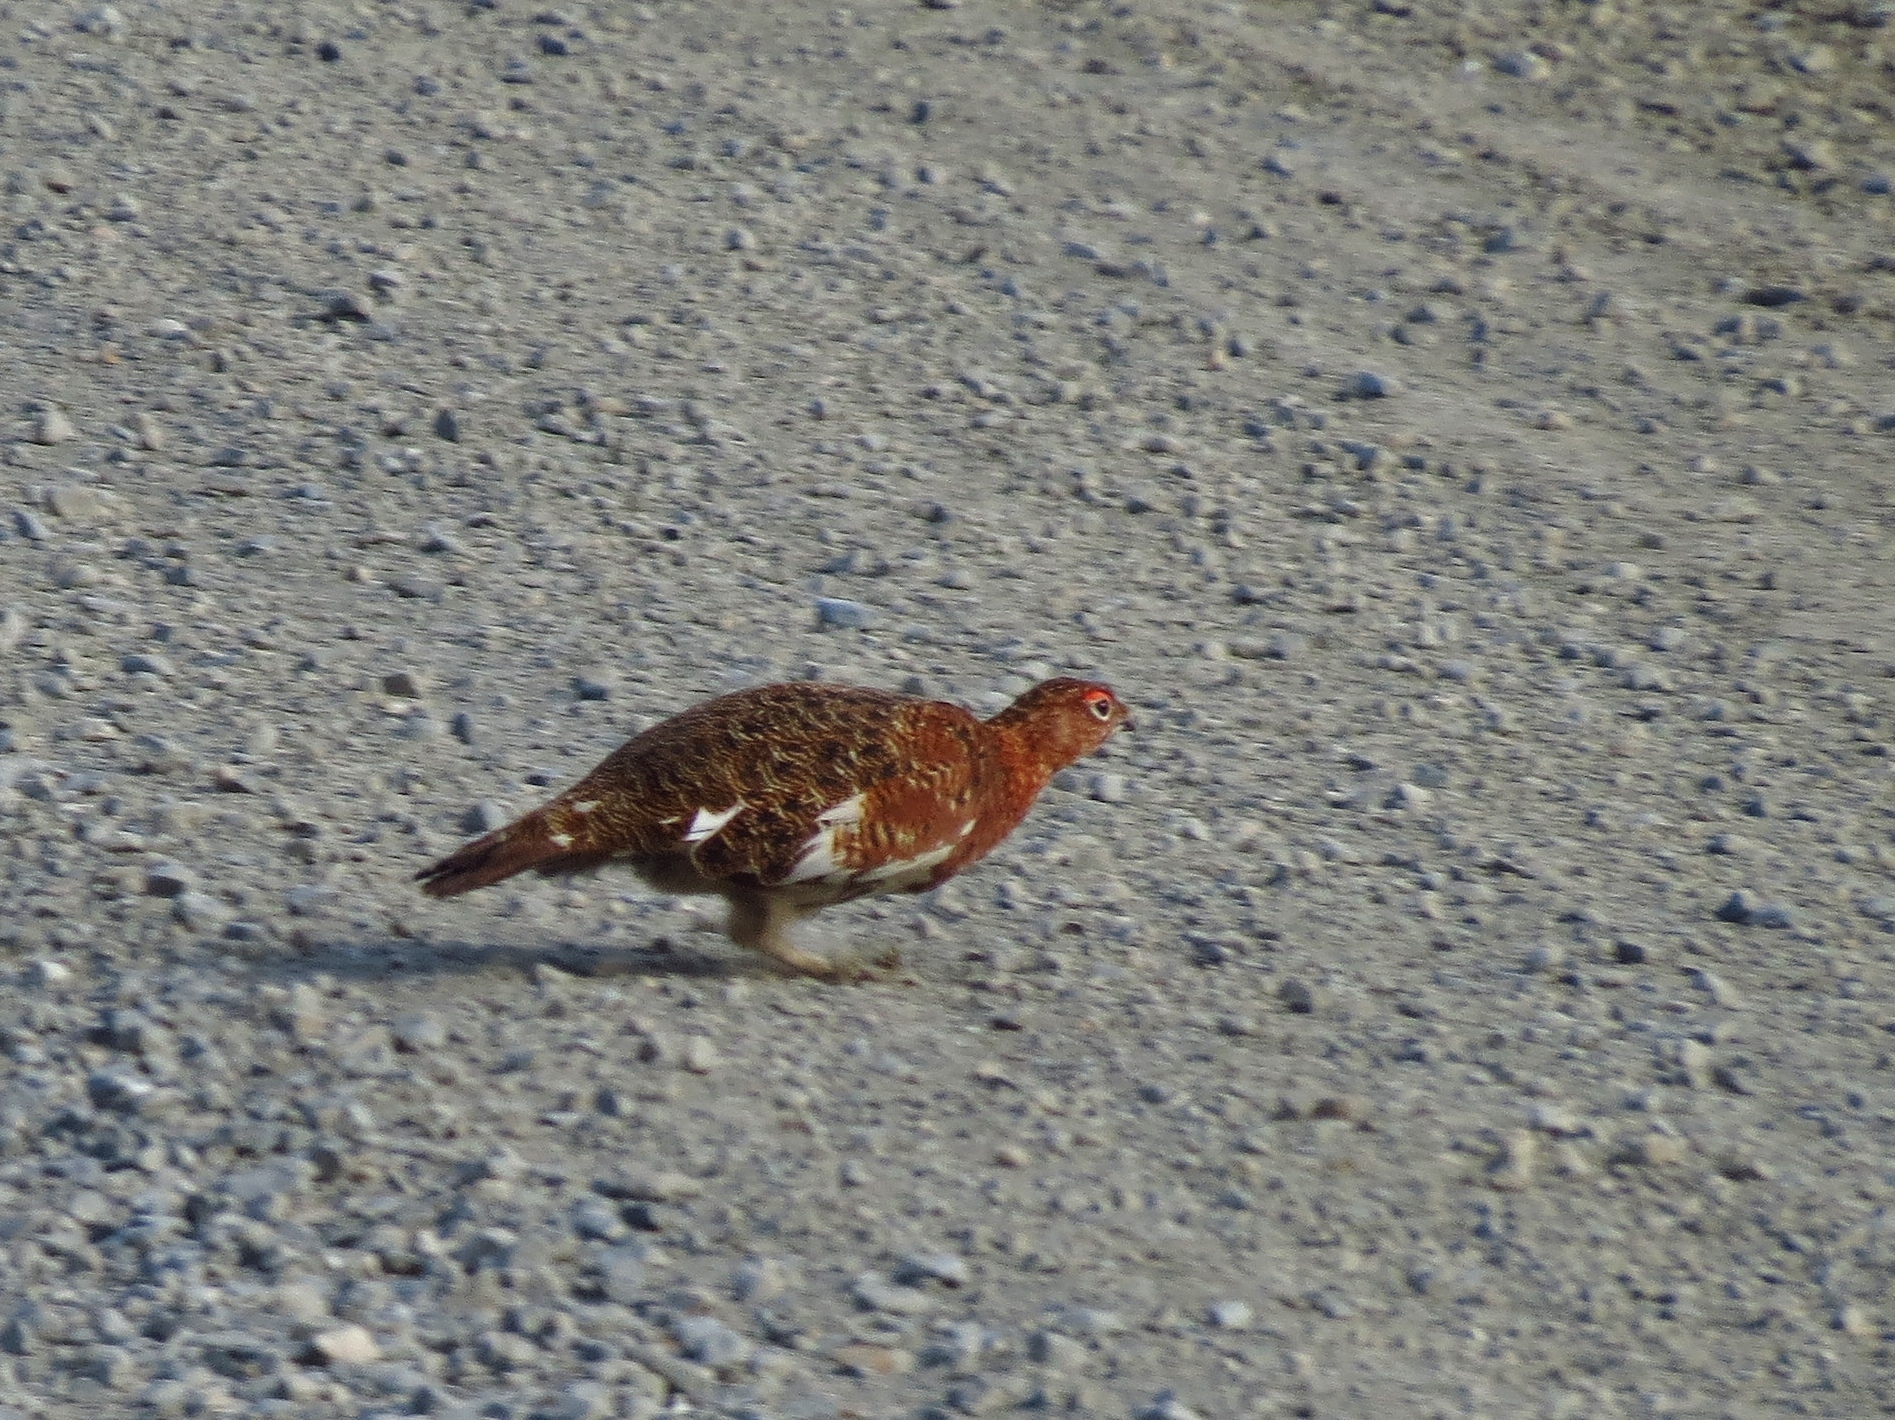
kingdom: Animalia
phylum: Chordata
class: Aves
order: Galliformes
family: Phasianidae
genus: Lagopus
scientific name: Lagopus lagopus
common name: Willow ptarmigan
